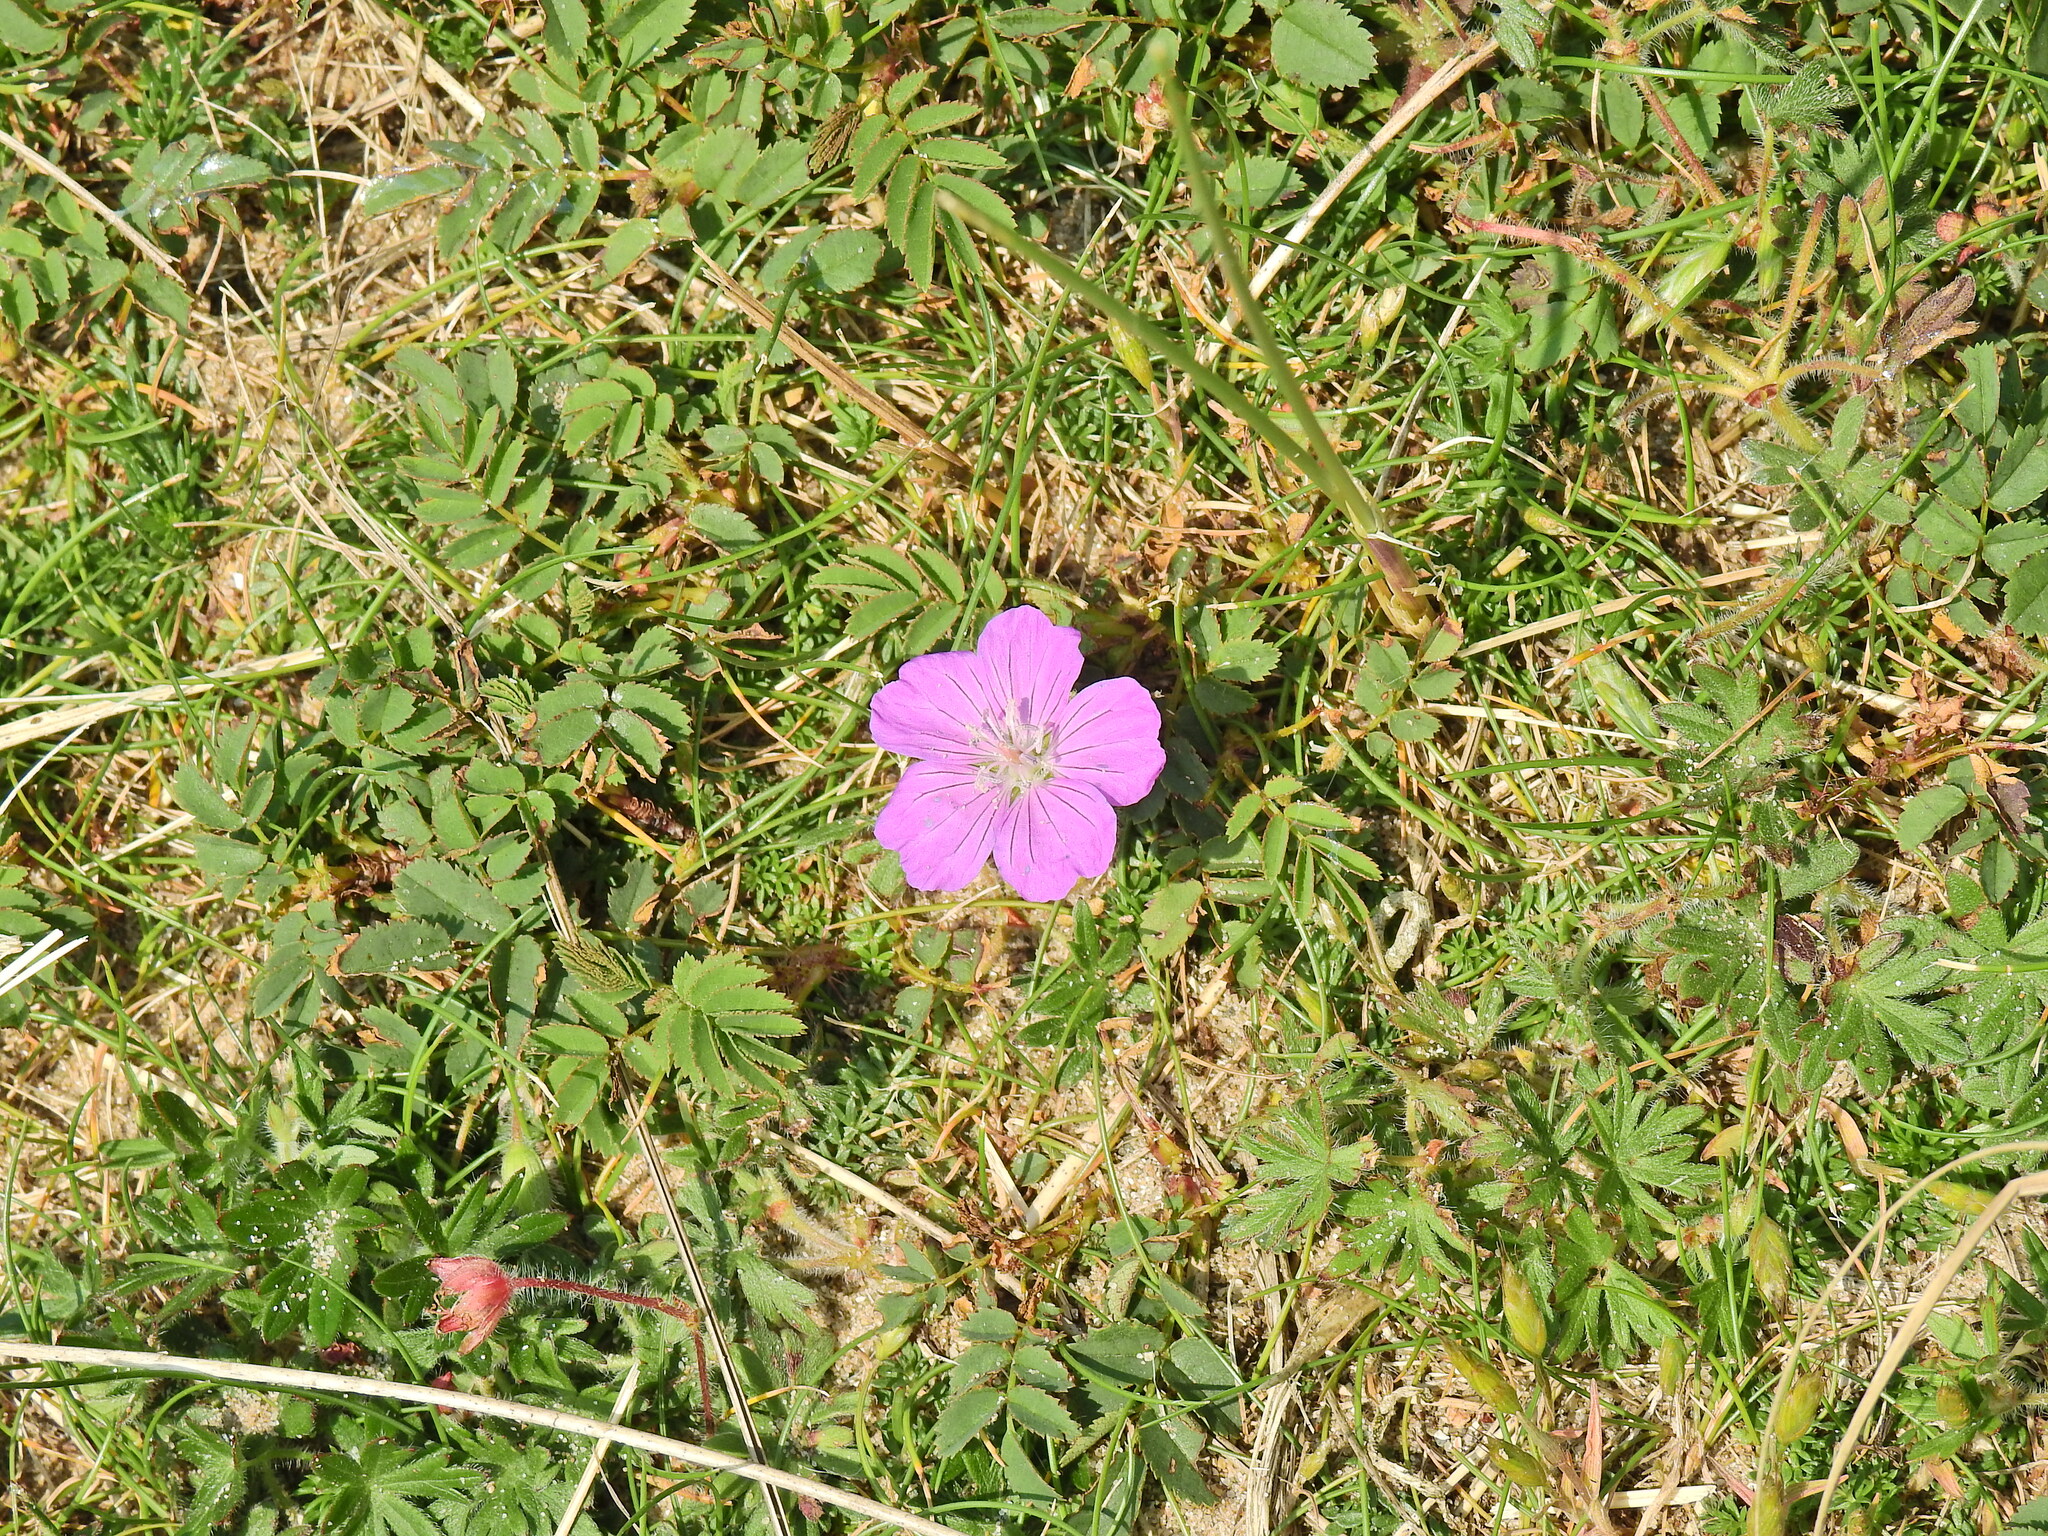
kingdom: Plantae
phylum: Tracheophyta
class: Magnoliopsida
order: Geraniales
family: Geraniaceae
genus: Geranium
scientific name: Geranium sanguineum
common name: Bloody crane's-bill
